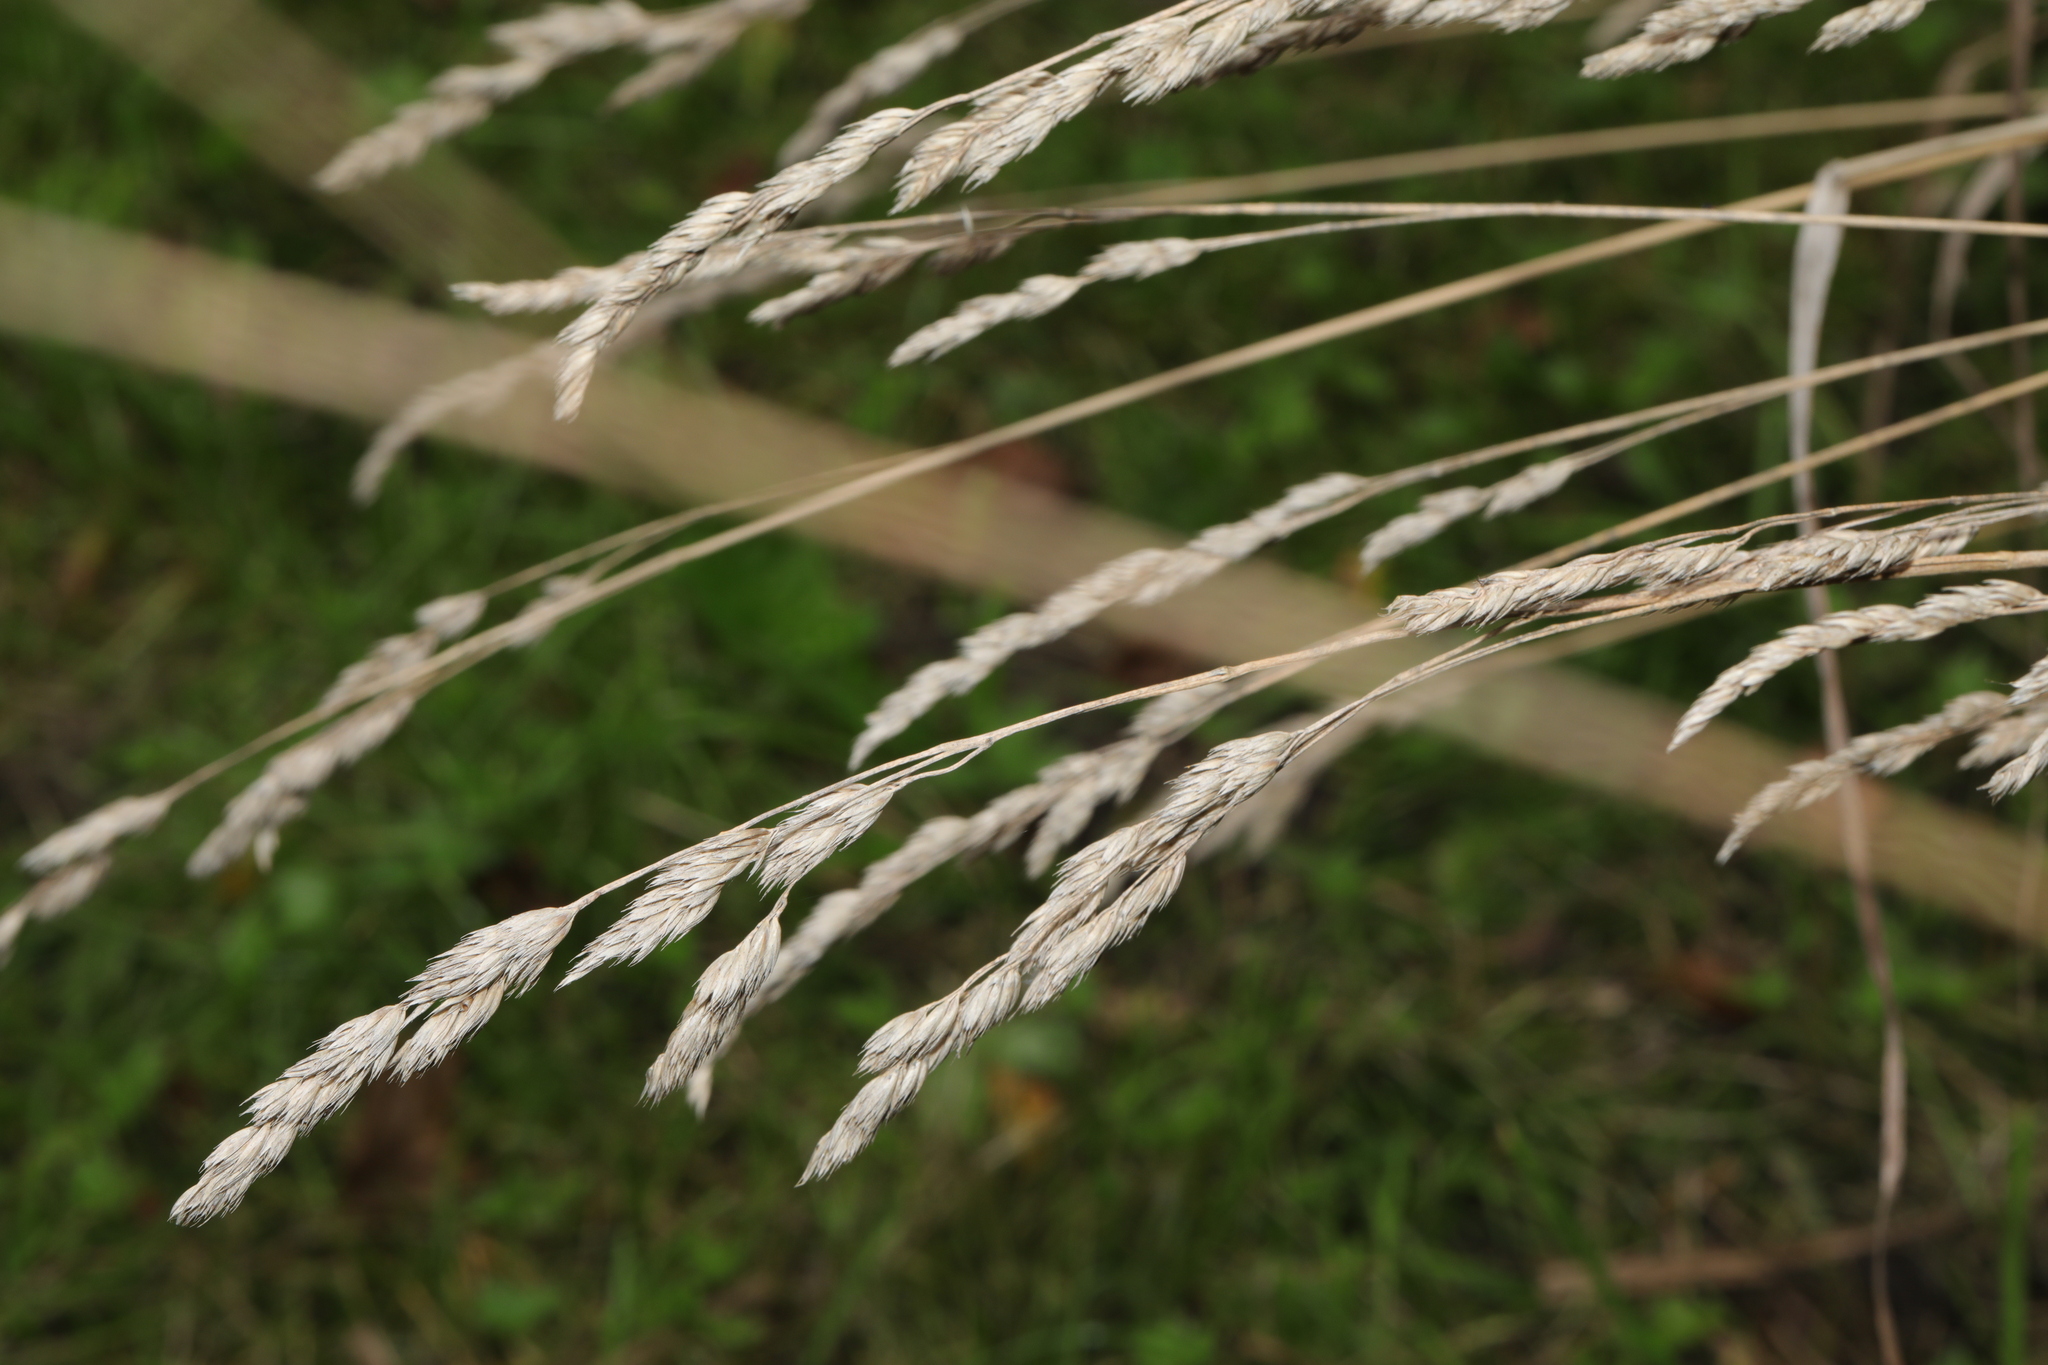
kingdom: Plantae
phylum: Tracheophyta
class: Liliopsida
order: Poales
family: Poaceae
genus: Dactylis
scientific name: Dactylis glomerata
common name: Orchardgrass
